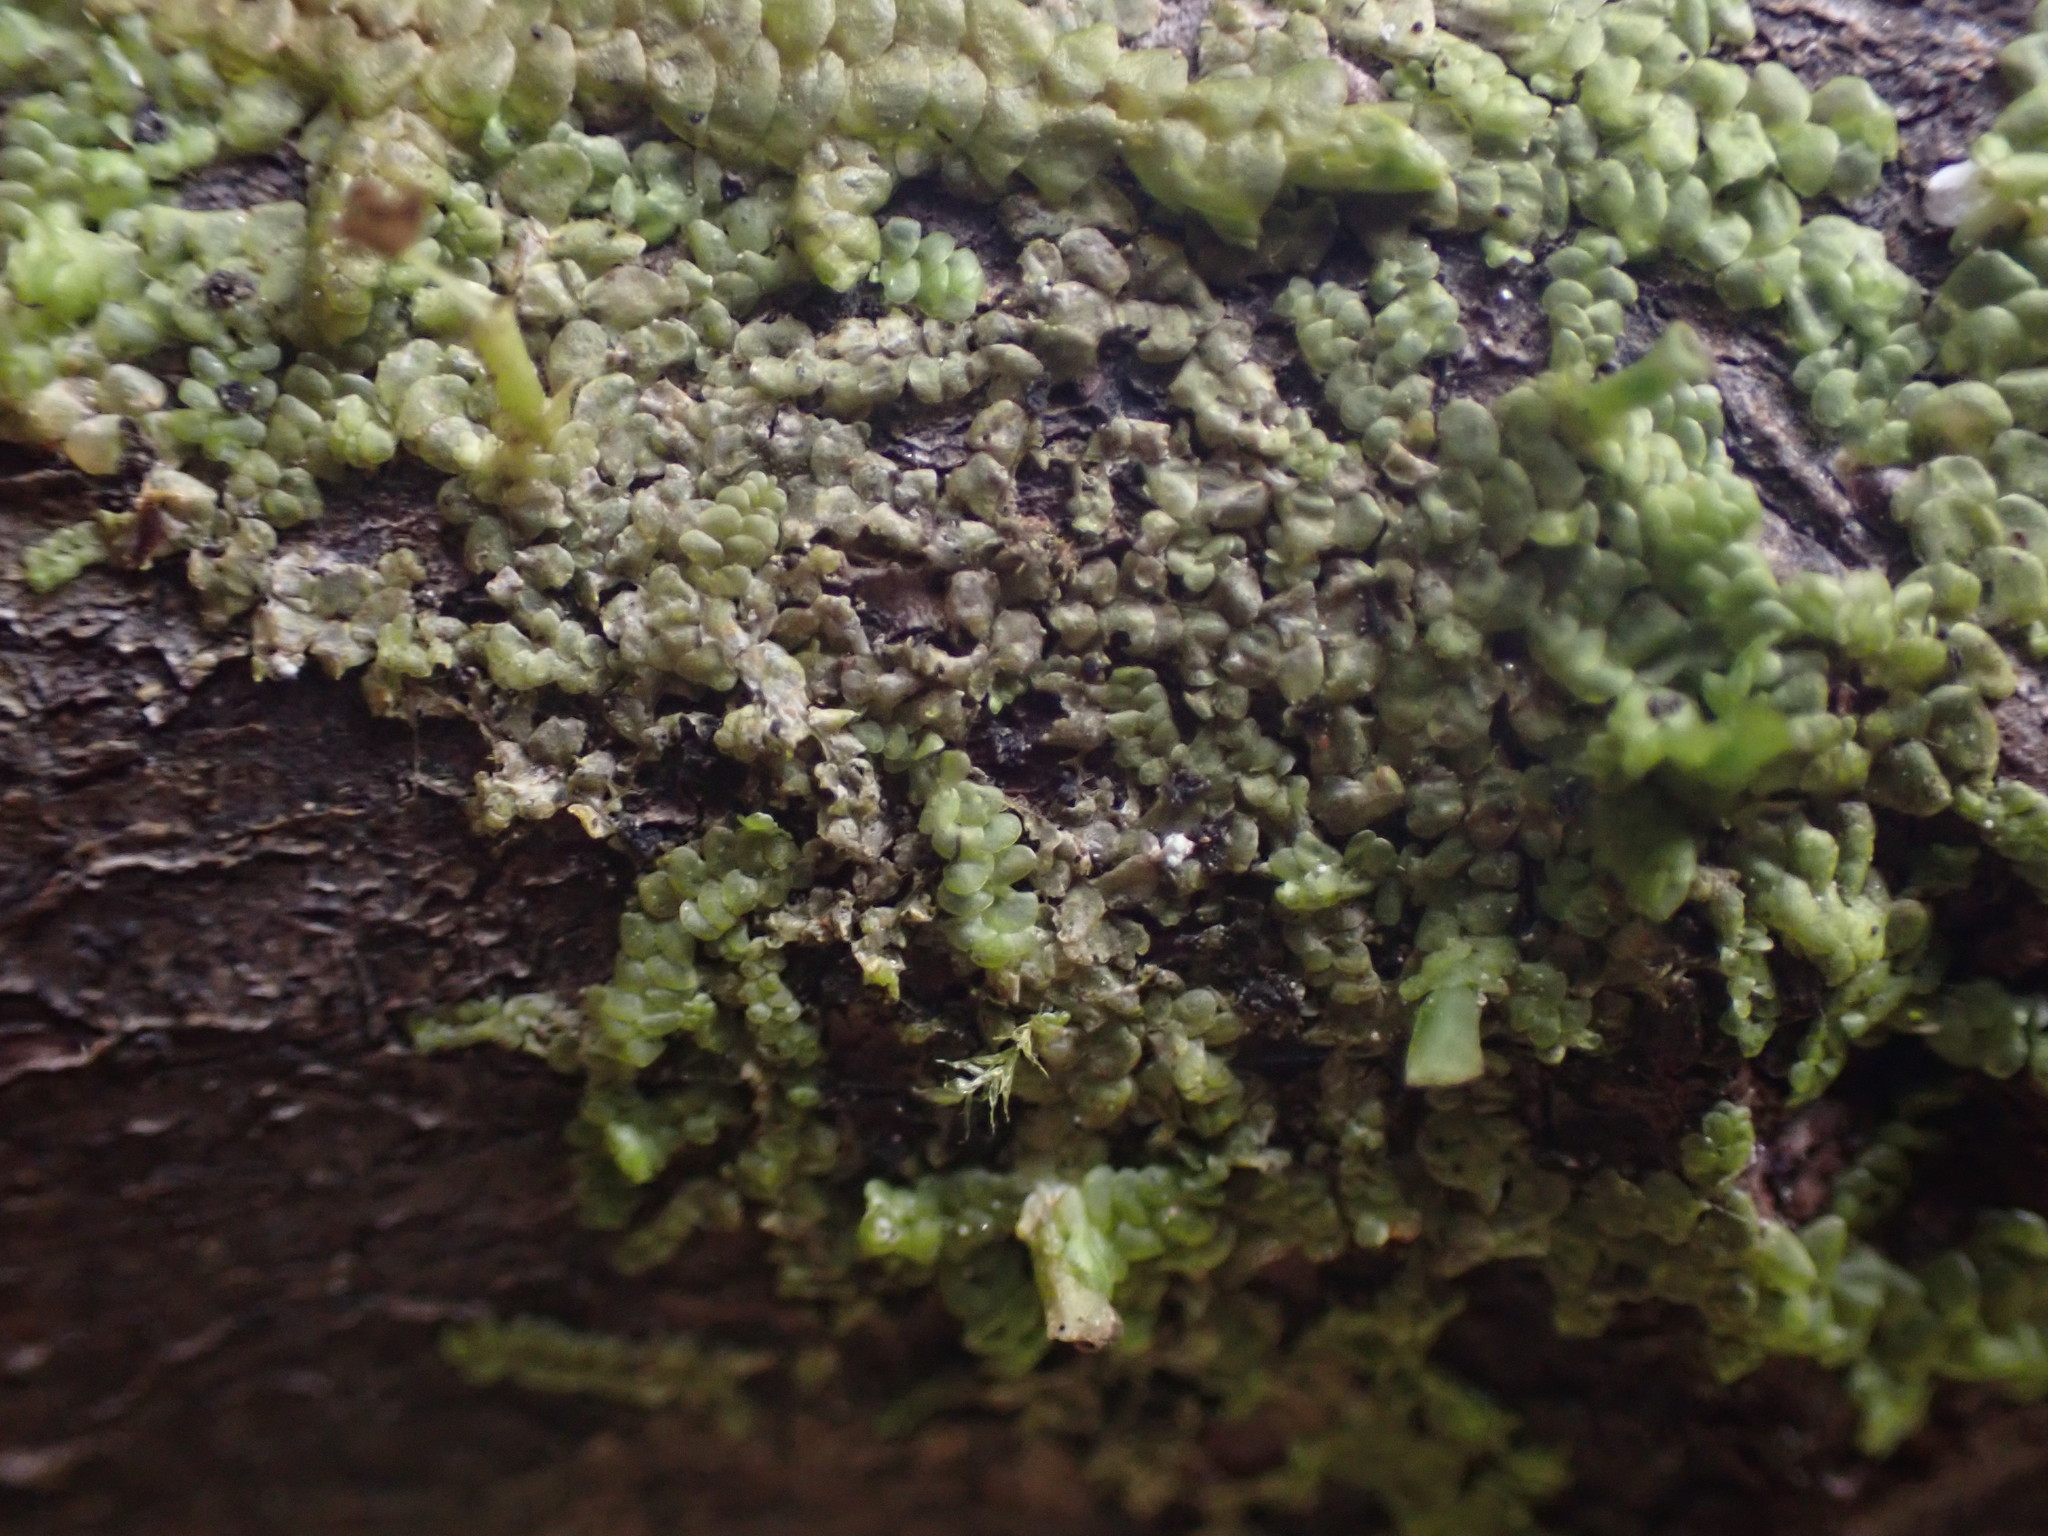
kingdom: Plantae
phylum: Marchantiophyta
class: Jungermanniopsida
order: Porellales
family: Radulaceae
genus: Radula
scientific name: Radula complanata
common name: Flat-leaved scalewort
